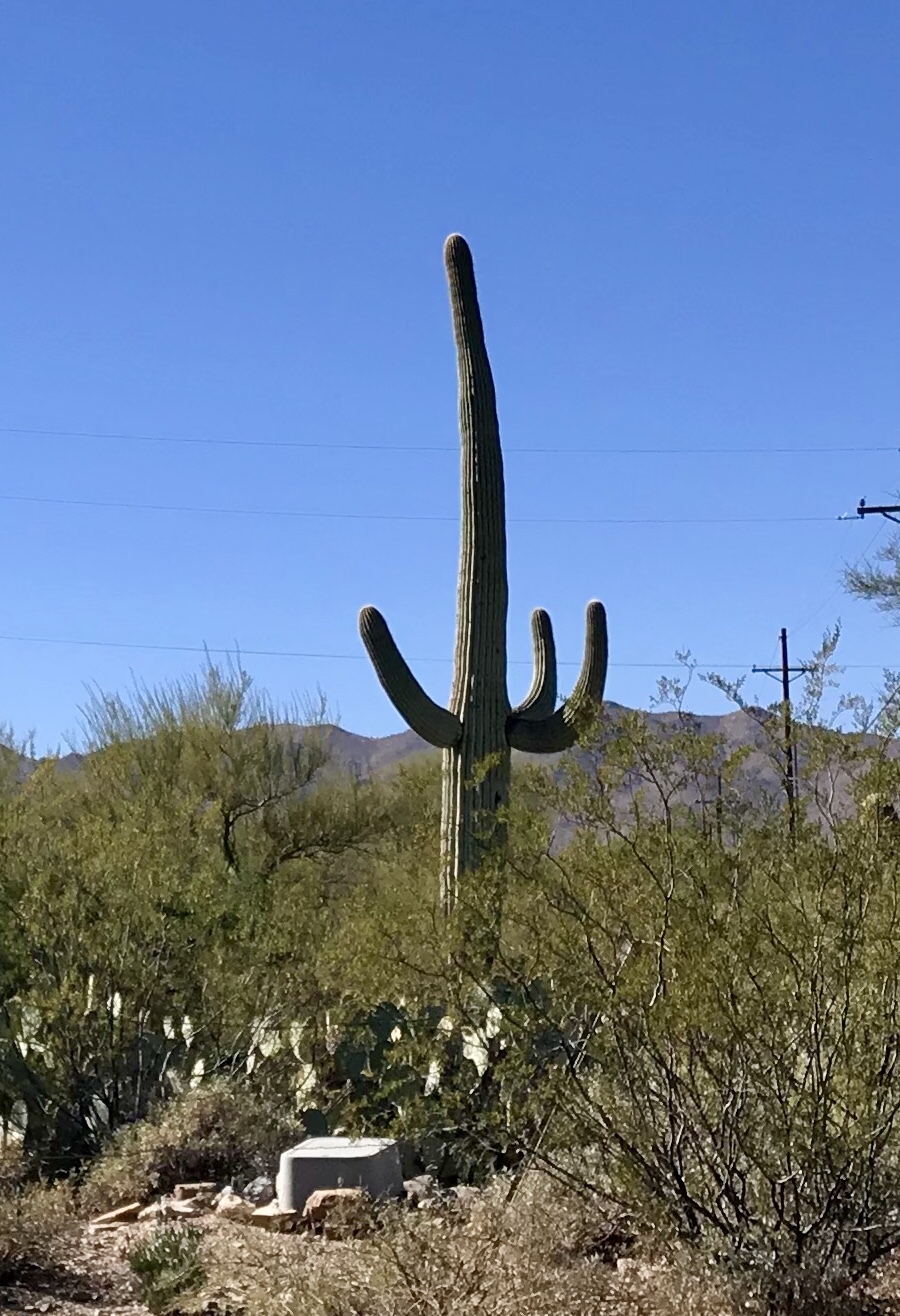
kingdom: Plantae
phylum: Tracheophyta
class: Magnoliopsida
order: Caryophyllales
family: Cactaceae
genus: Carnegiea
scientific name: Carnegiea gigantea
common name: Saguaro
